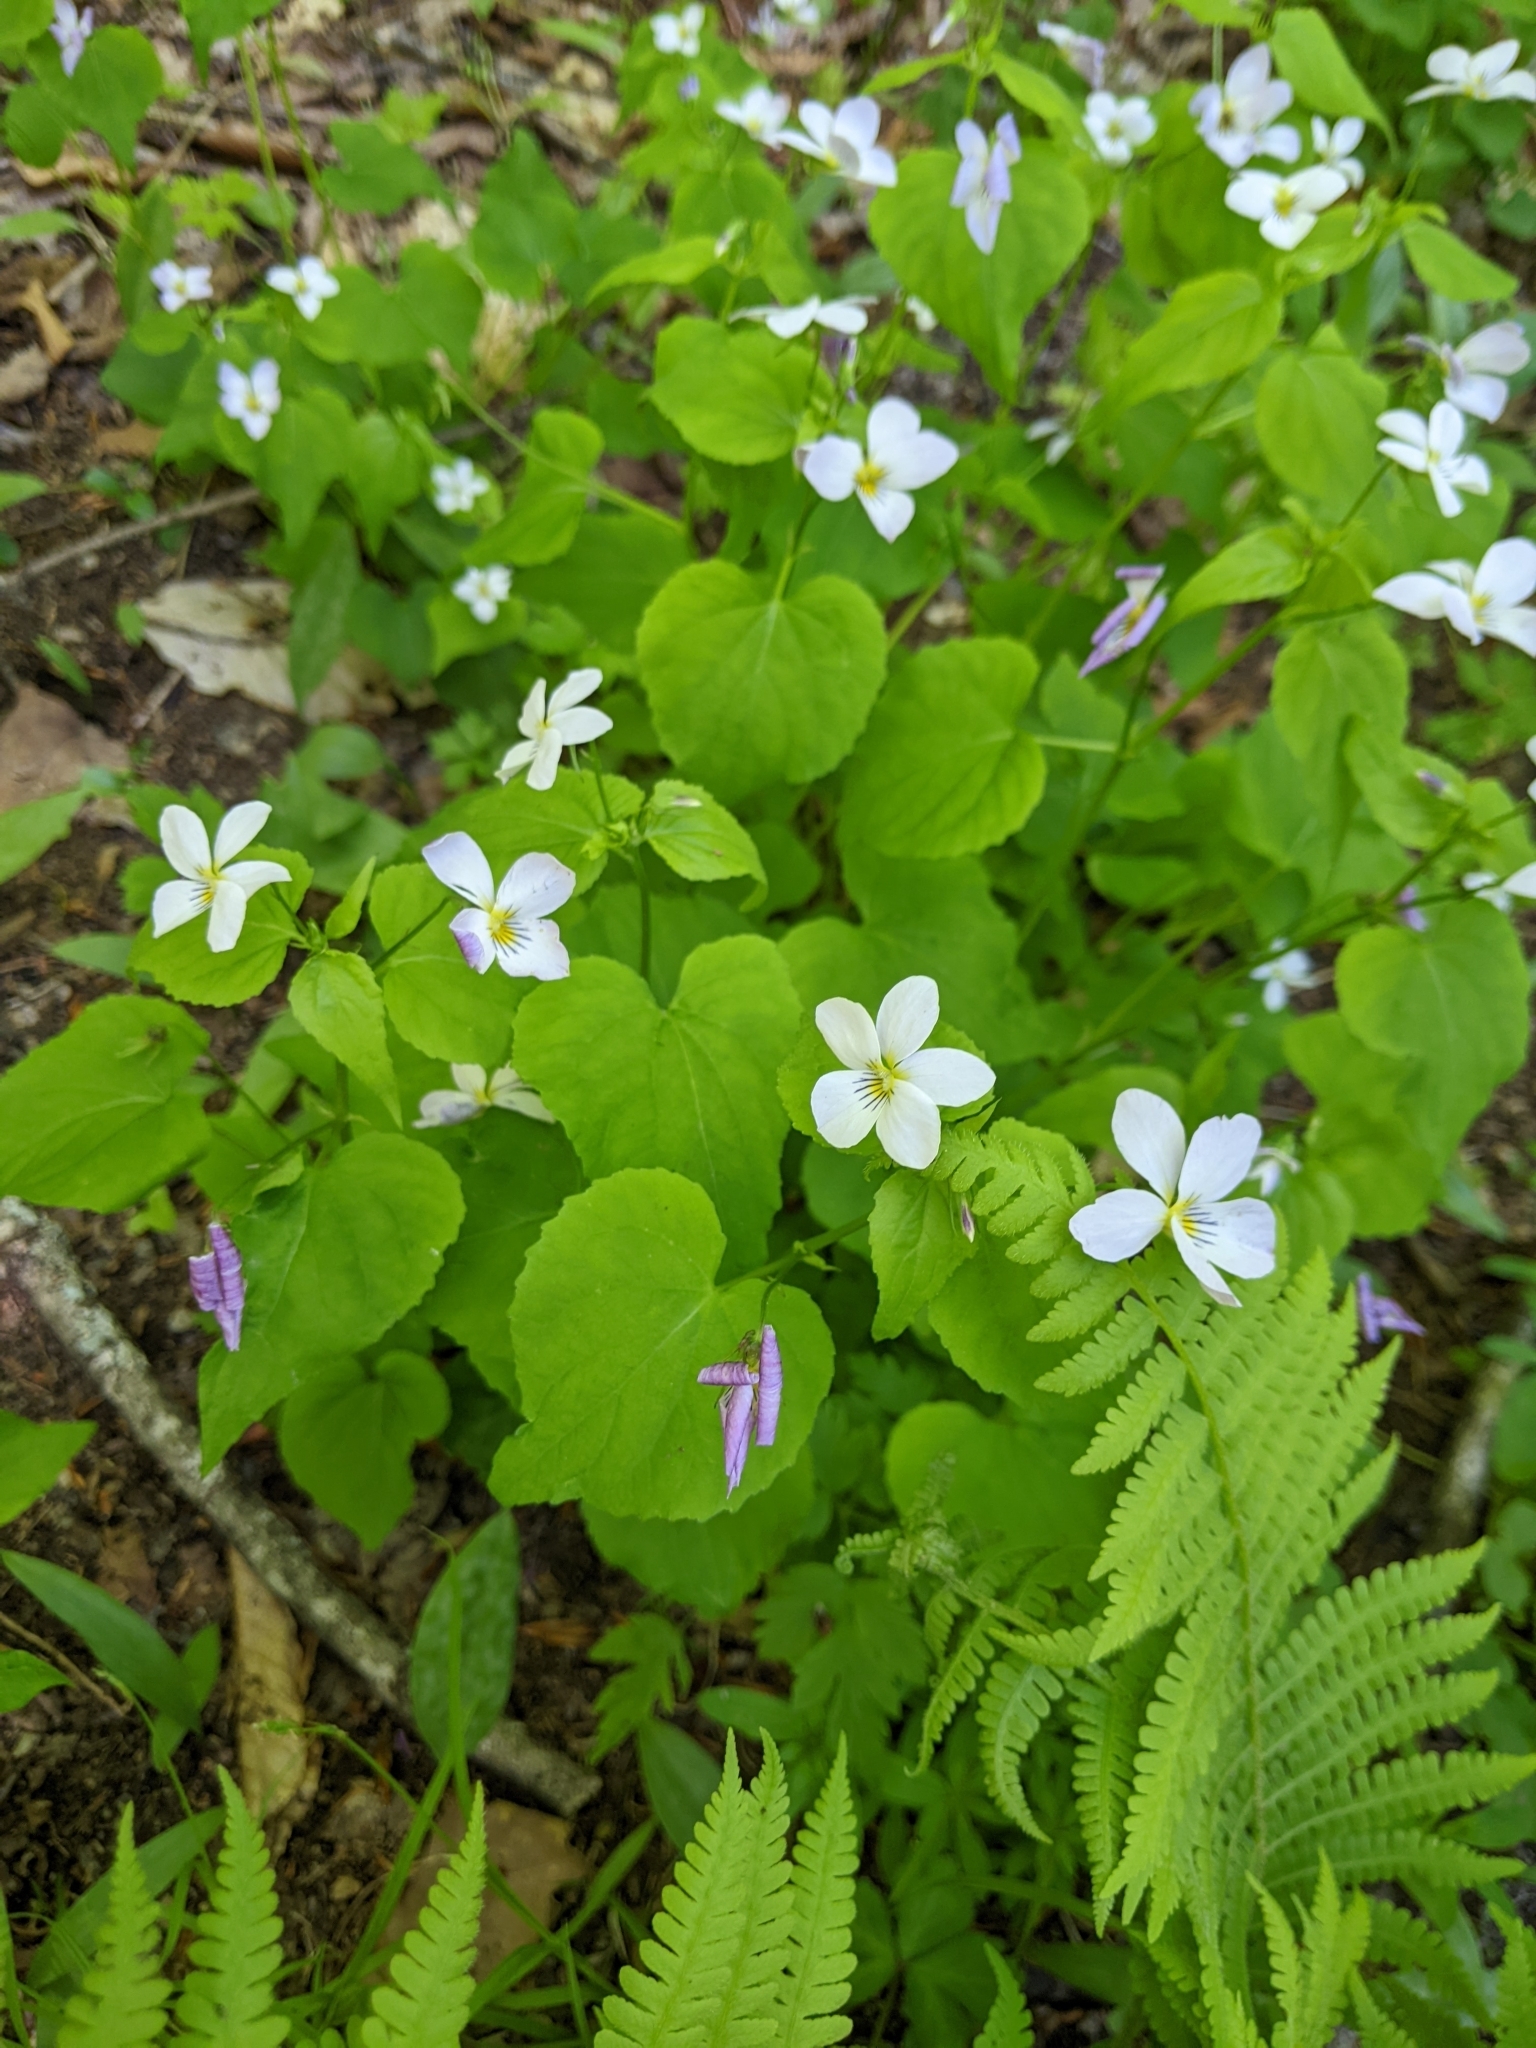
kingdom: Plantae
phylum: Tracheophyta
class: Magnoliopsida
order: Malpighiales
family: Violaceae
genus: Viola
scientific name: Viola canadensis
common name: Canada violet
